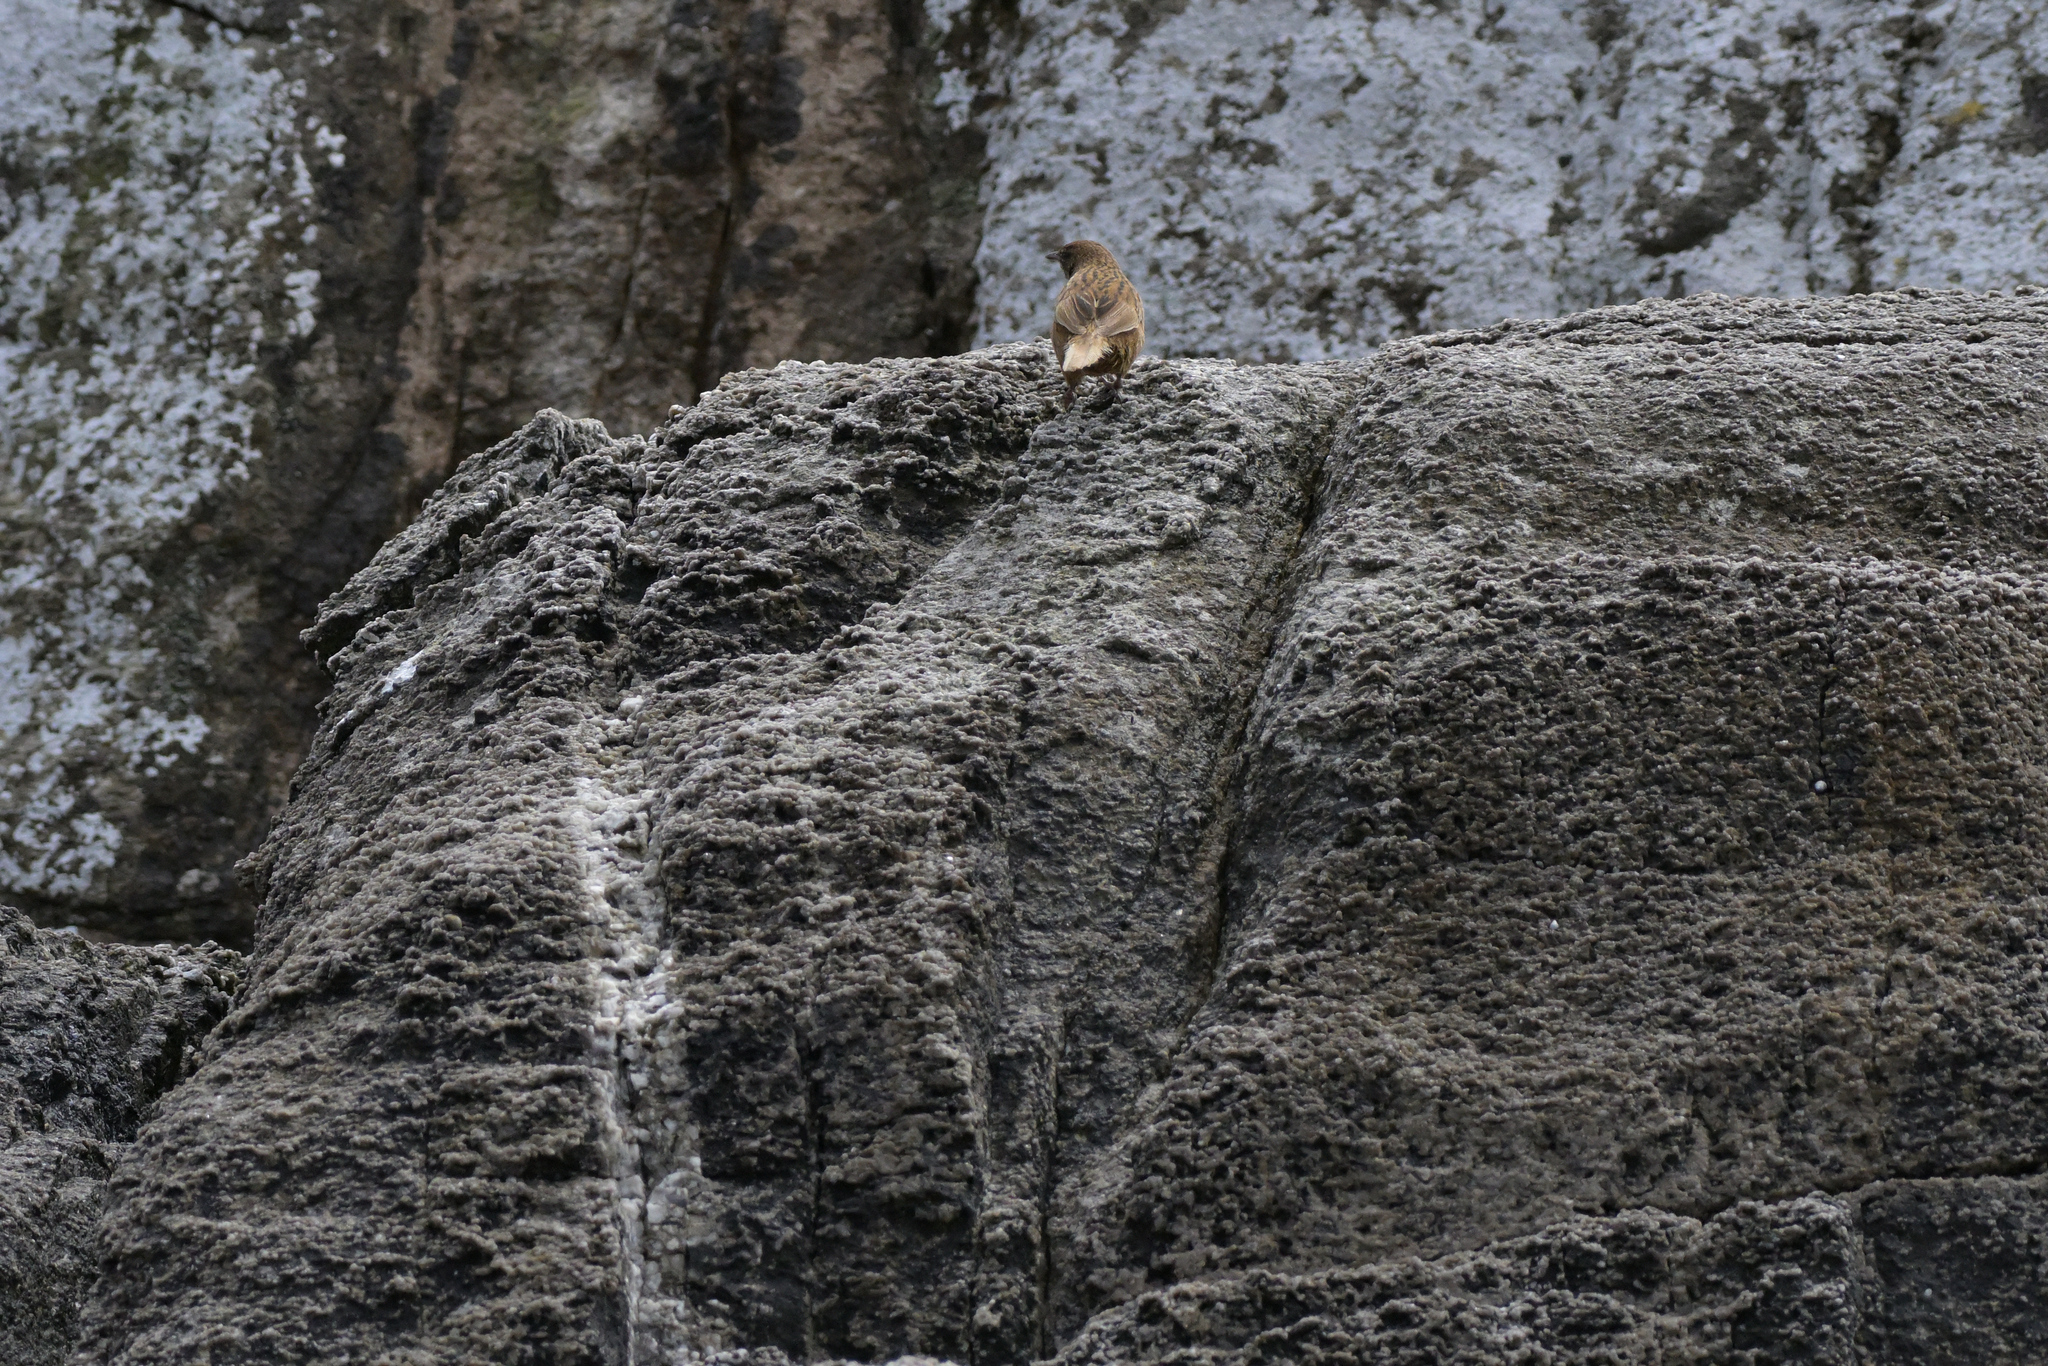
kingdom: Animalia
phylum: Chordata
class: Aves
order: Passeriformes
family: Locustellidae
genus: Megalurus
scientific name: Megalurus punctatus
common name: New zealand fernbird
